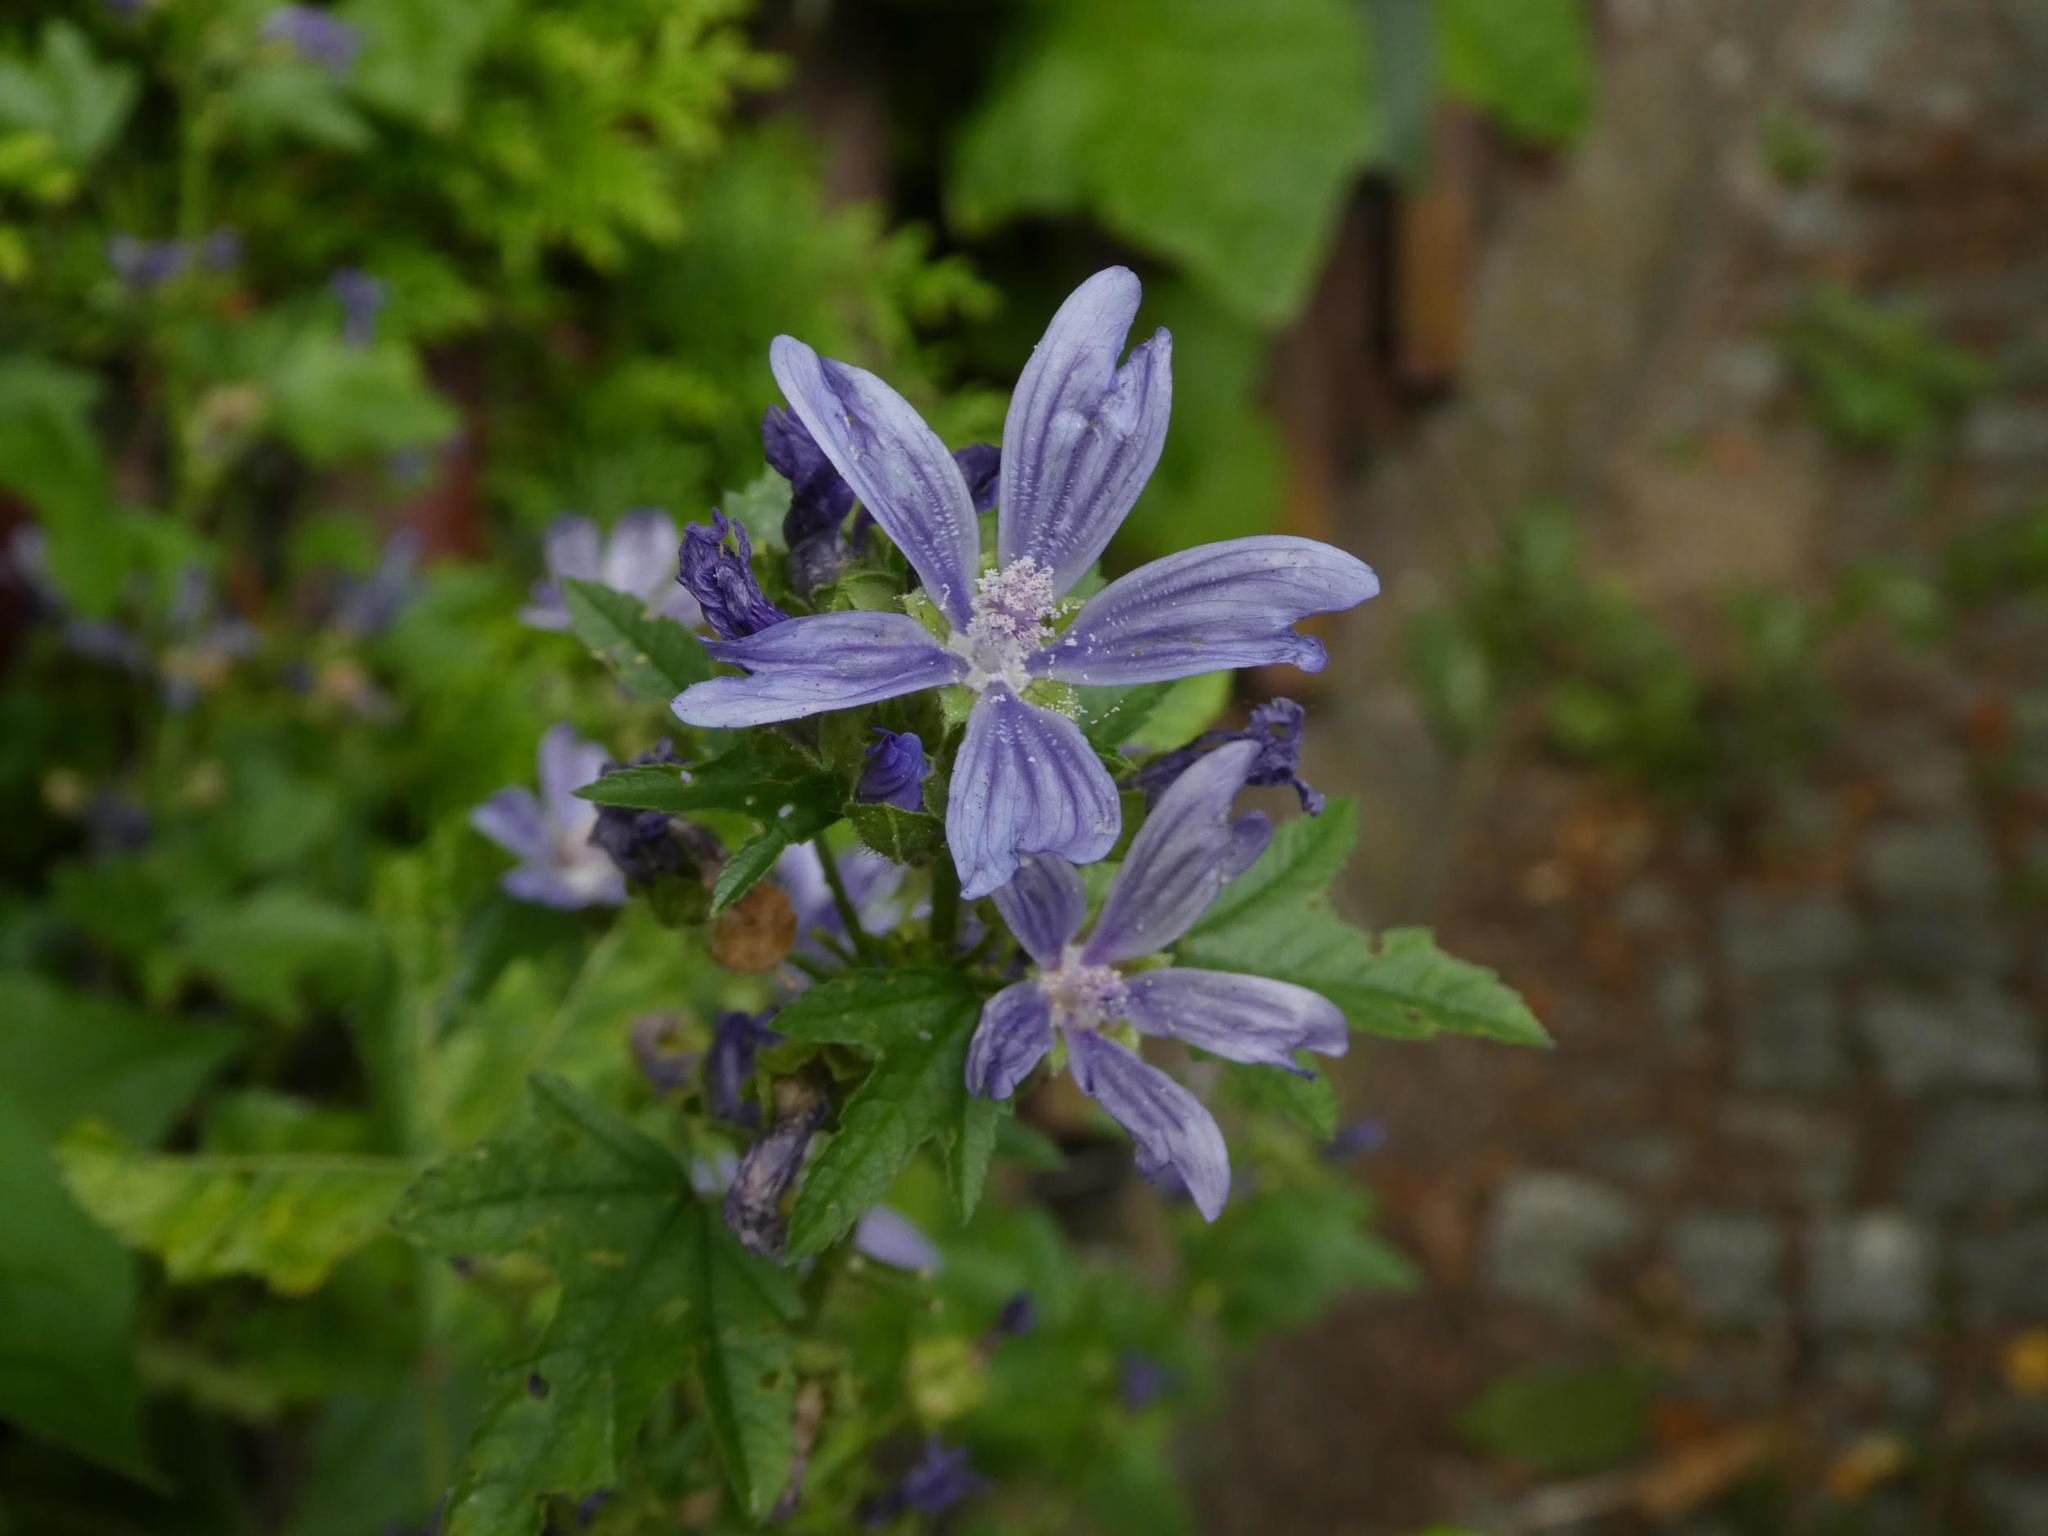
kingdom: Plantae
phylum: Tracheophyta
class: Magnoliopsida
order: Malvales
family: Malvaceae
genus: Malva
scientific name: Malva sylvestris
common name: Common mallow
